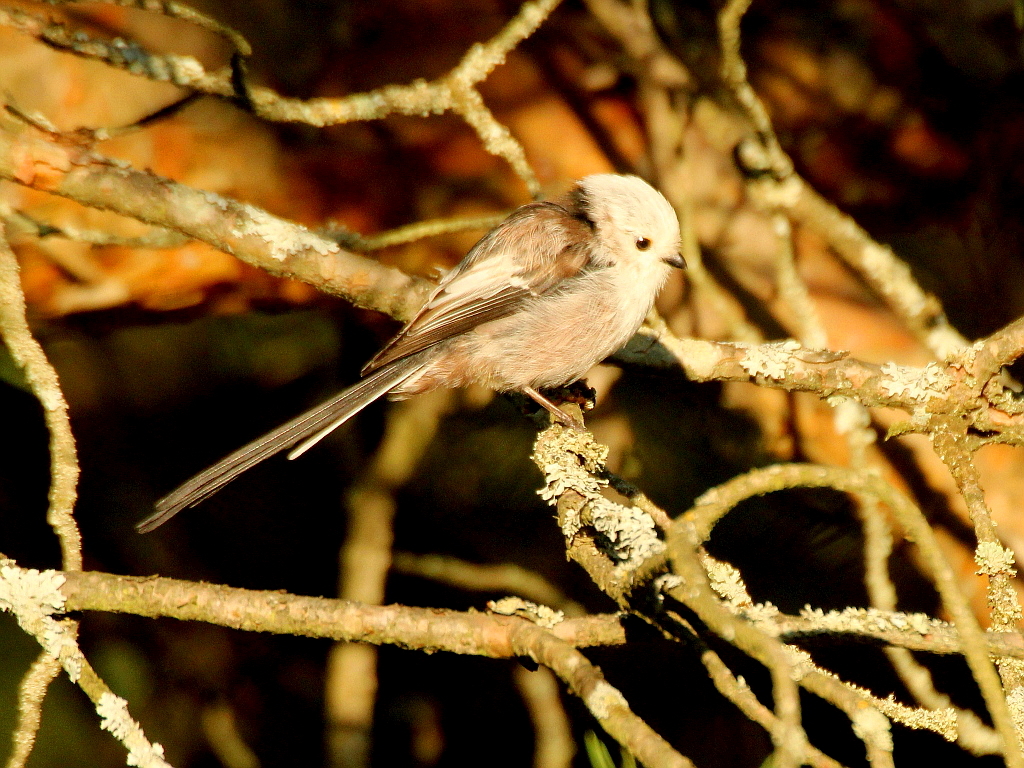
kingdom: Animalia
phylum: Chordata
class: Aves
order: Passeriformes
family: Aegithalidae
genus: Aegithalos
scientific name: Aegithalos caudatus
